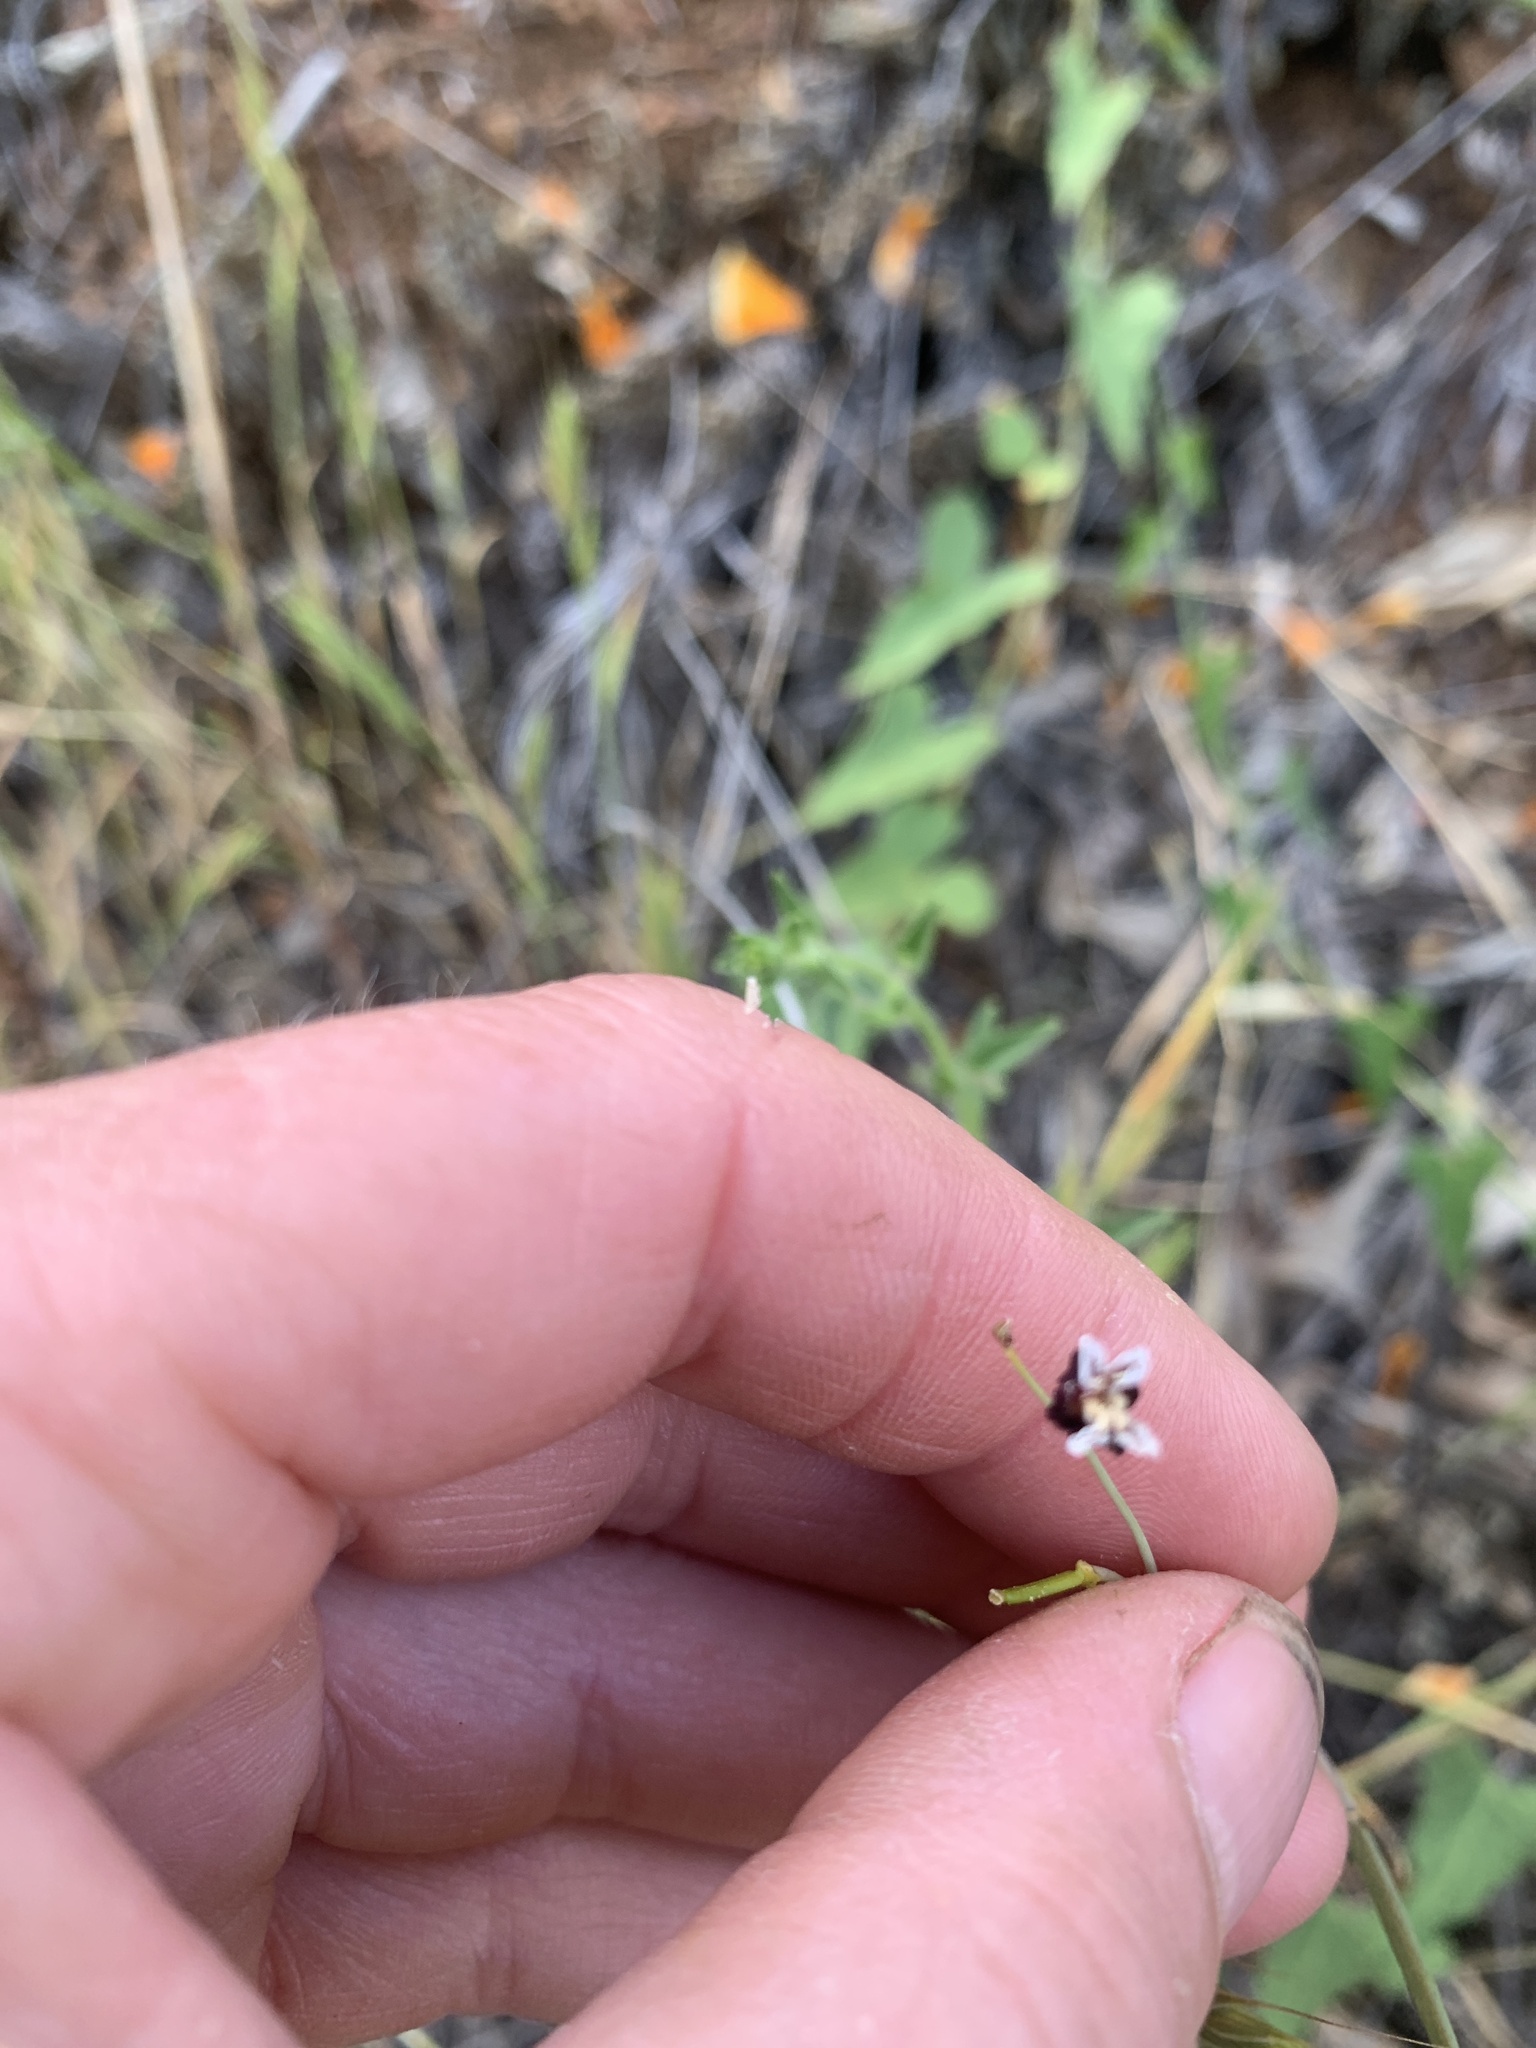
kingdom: Plantae
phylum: Tracheophyta
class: Magnoliopsida
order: Brassicales
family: Brassicaceae
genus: Streptanthus
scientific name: Streptanthus glandulosus
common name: Jewel-flower
